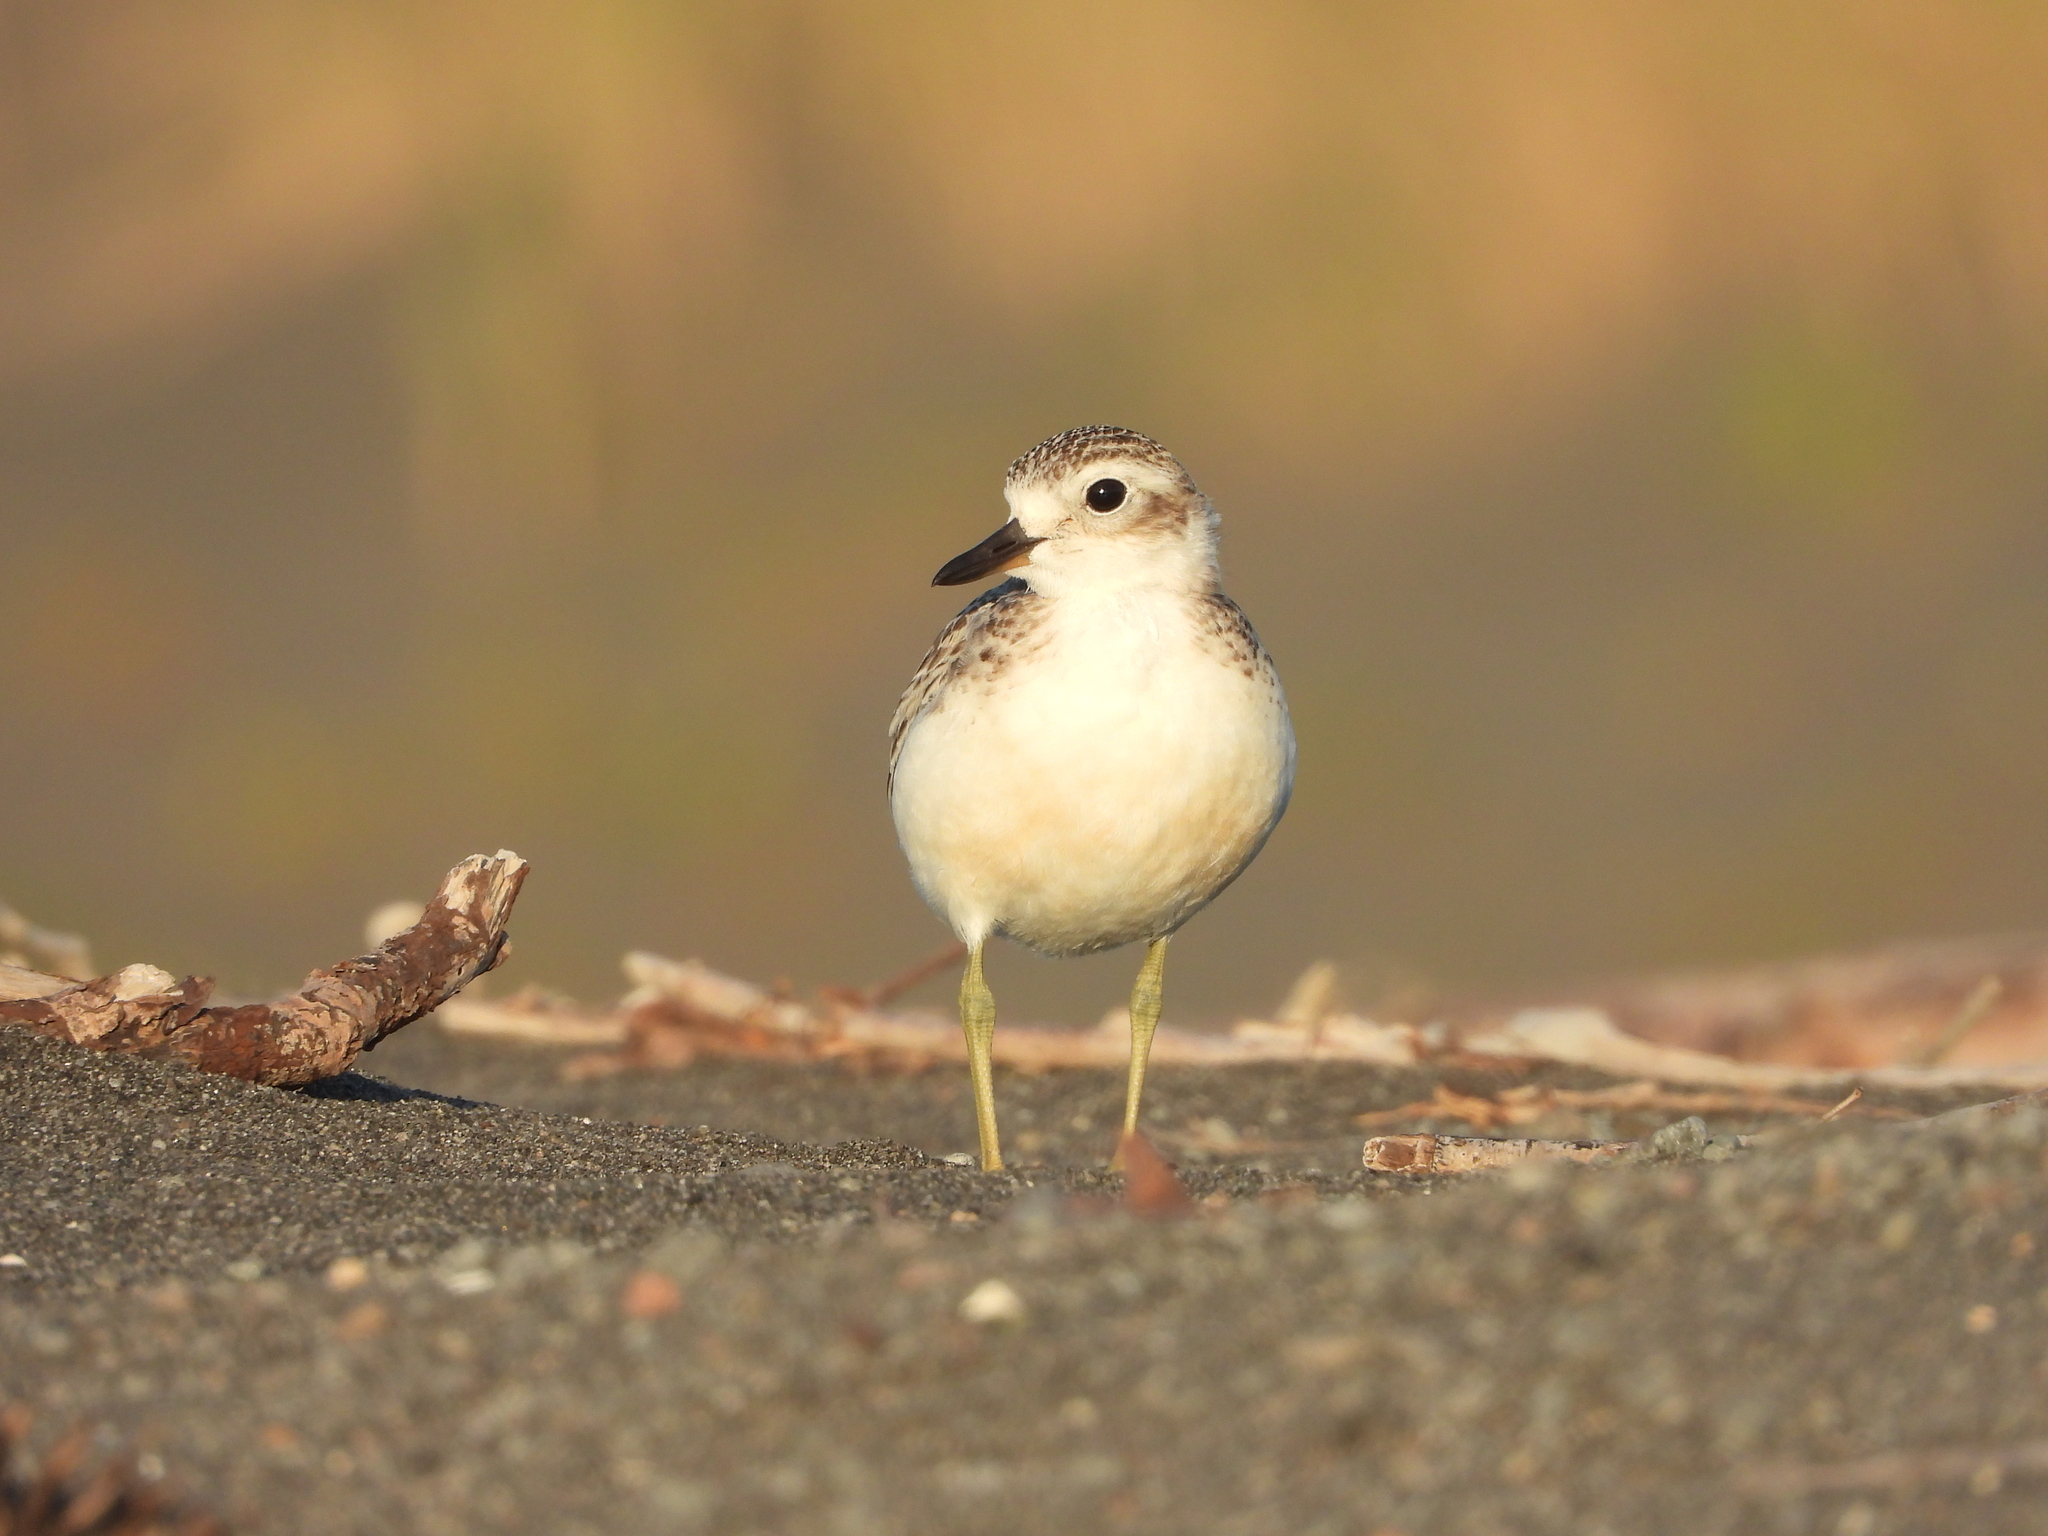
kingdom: Animalia
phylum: Chordata
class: Aves
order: Charadriiformes
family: Charadriidae
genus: Anarhynchus
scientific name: Anarhynchus
